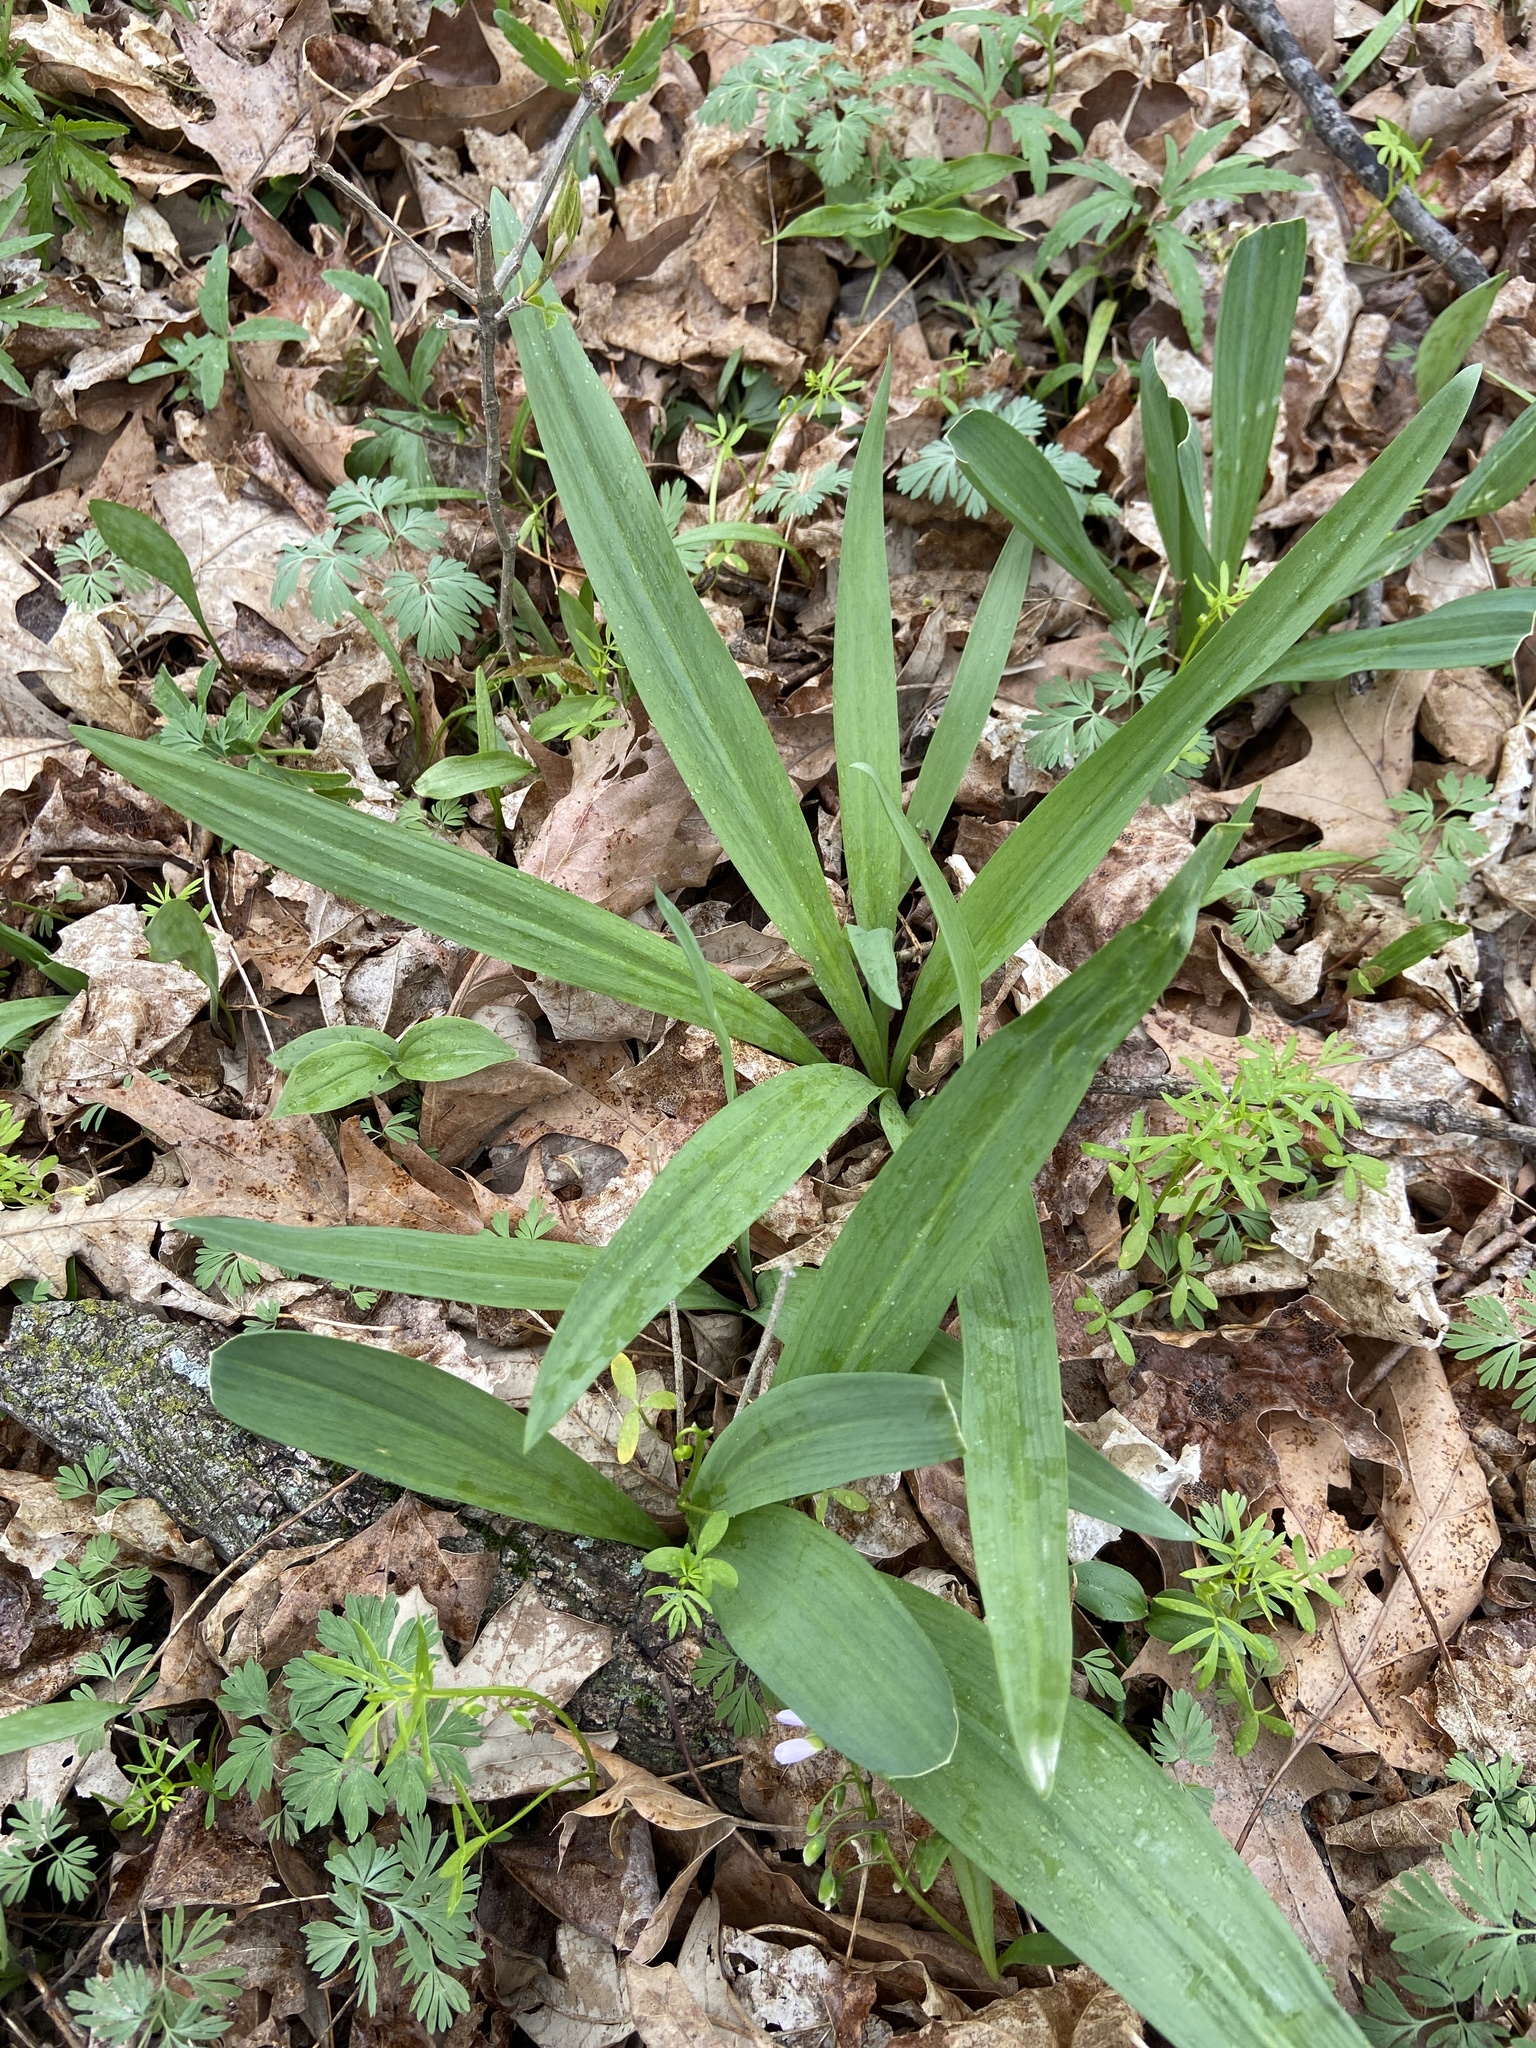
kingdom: Plantae
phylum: Tracheophyta
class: Liliopsida
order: Asparagales
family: Amaryllidaceae
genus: Allium
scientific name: Allium tricoccum
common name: Ramp
